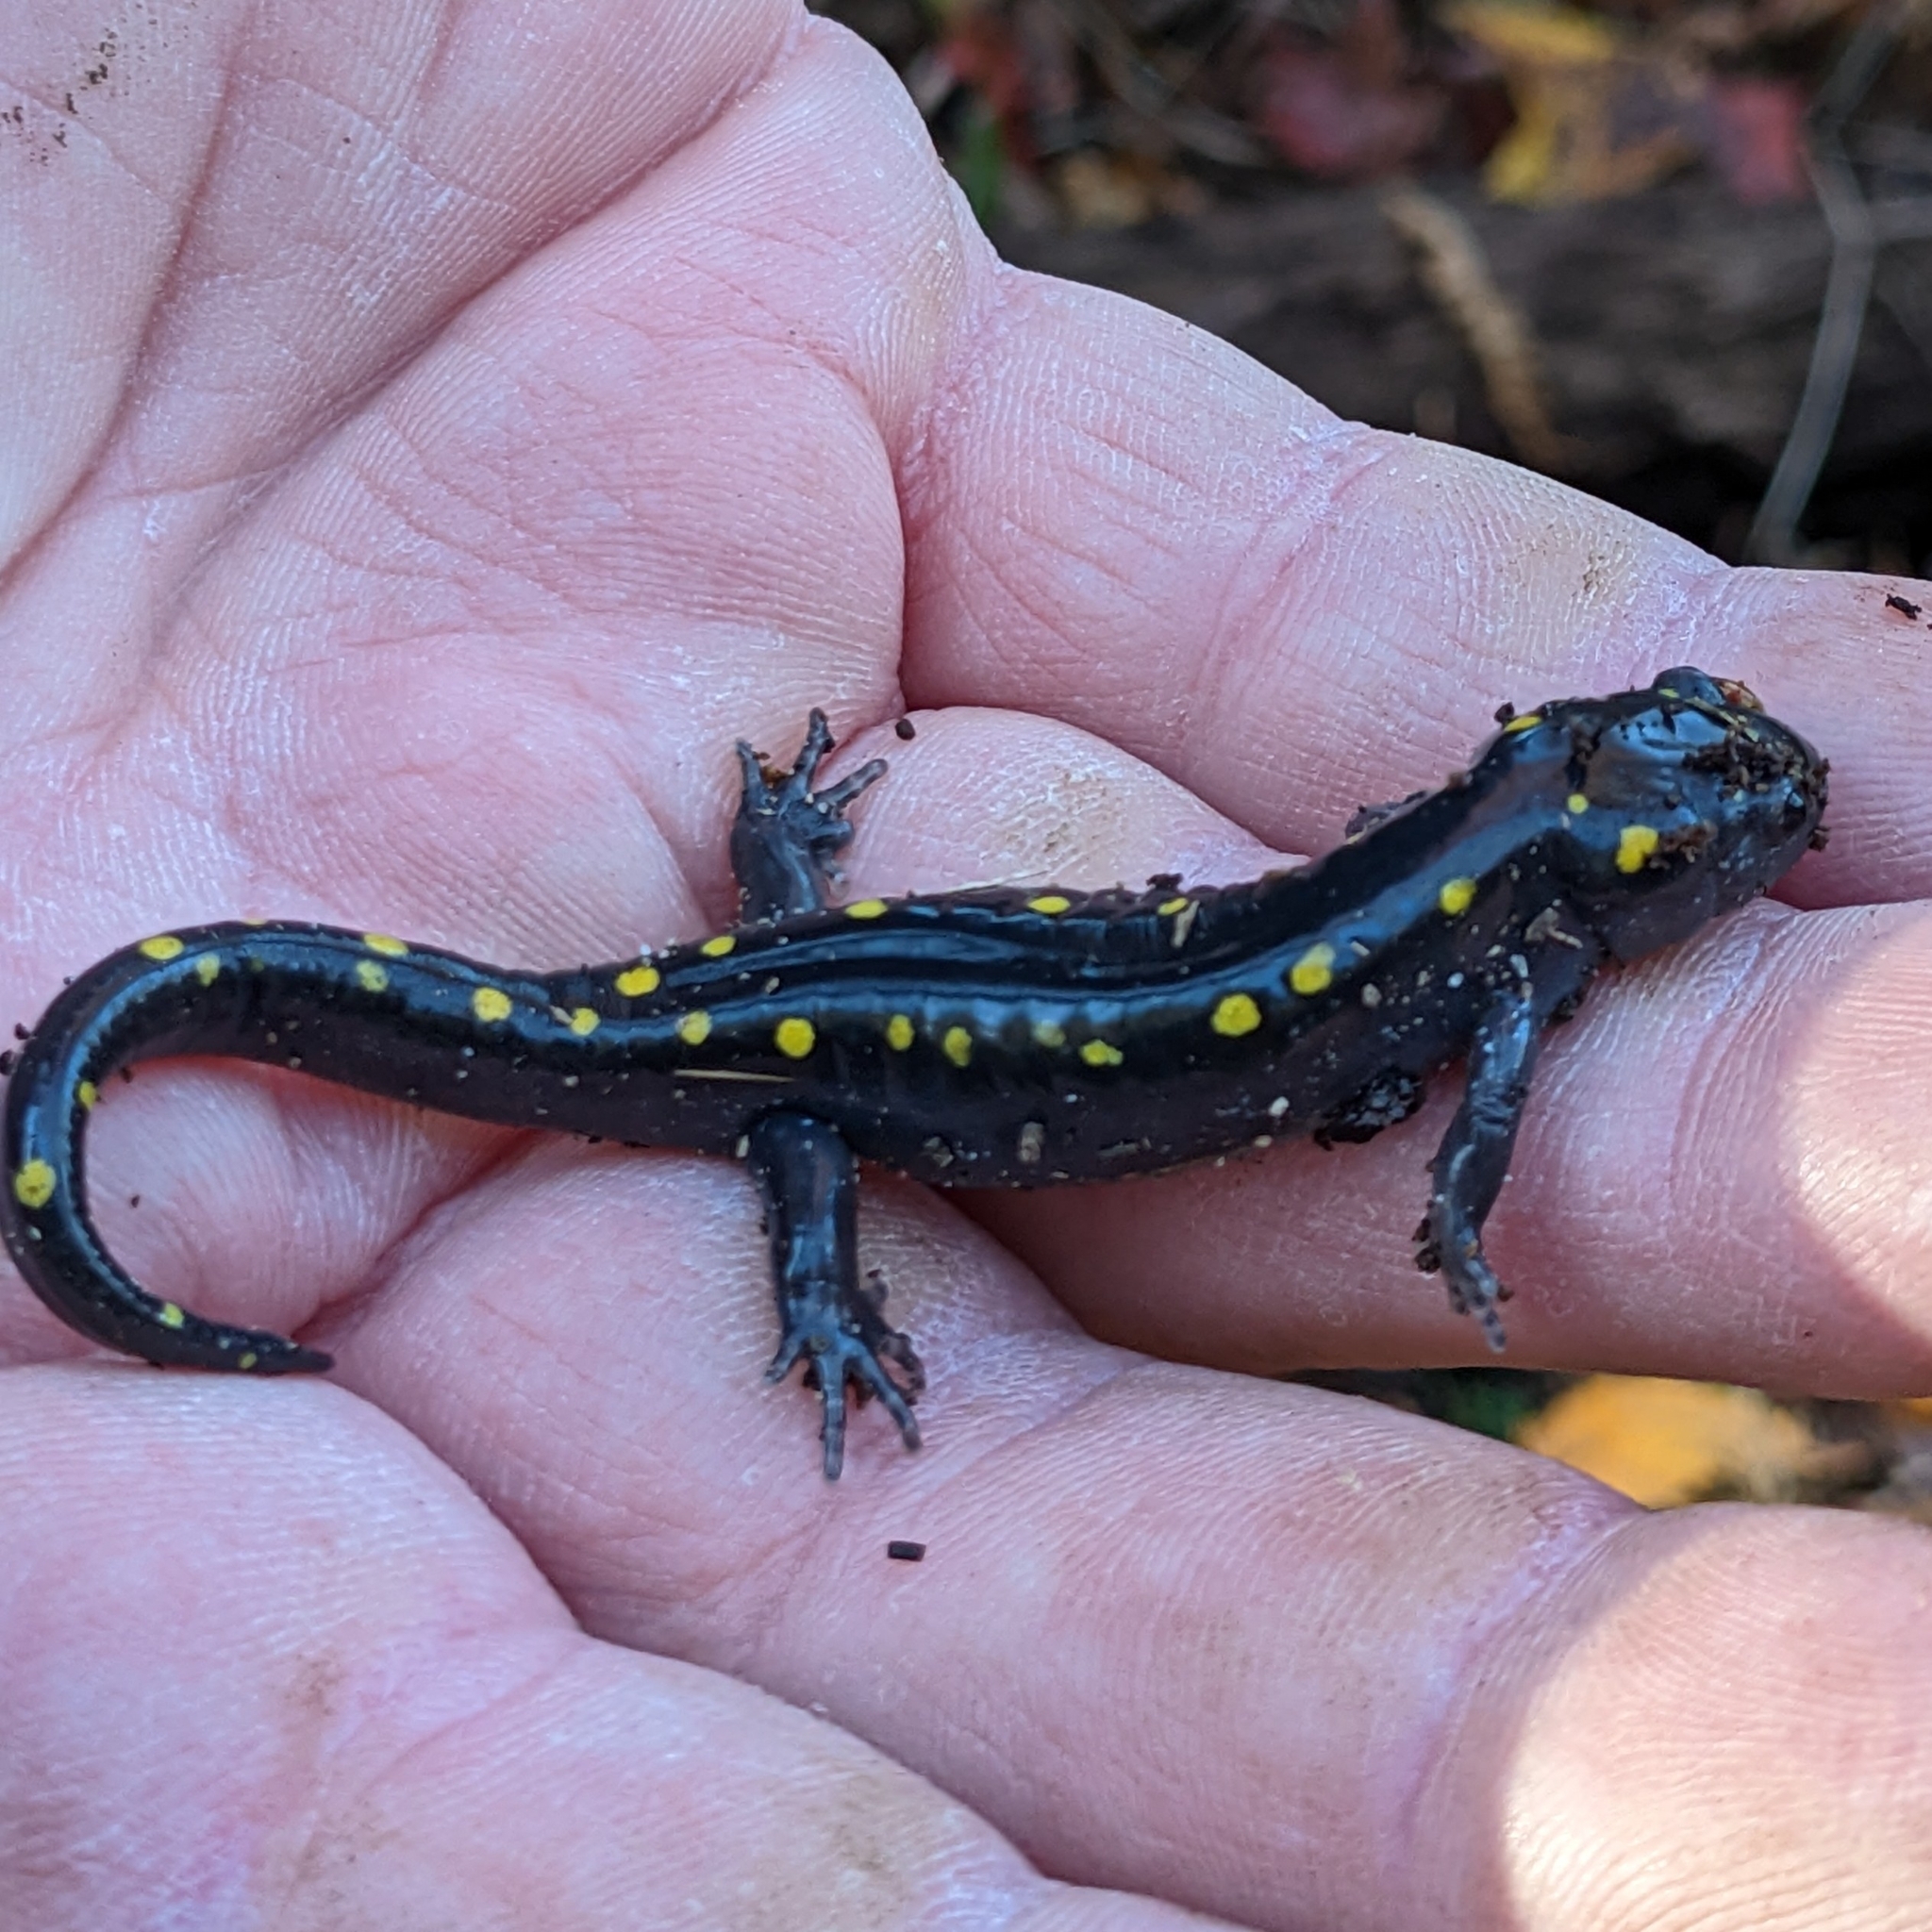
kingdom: Animalia
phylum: Chordata
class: Amphibia
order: Caudata
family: Ambystomatidae
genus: Ambystoma
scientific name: Ambystoma maculatum
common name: Spotted salamander
